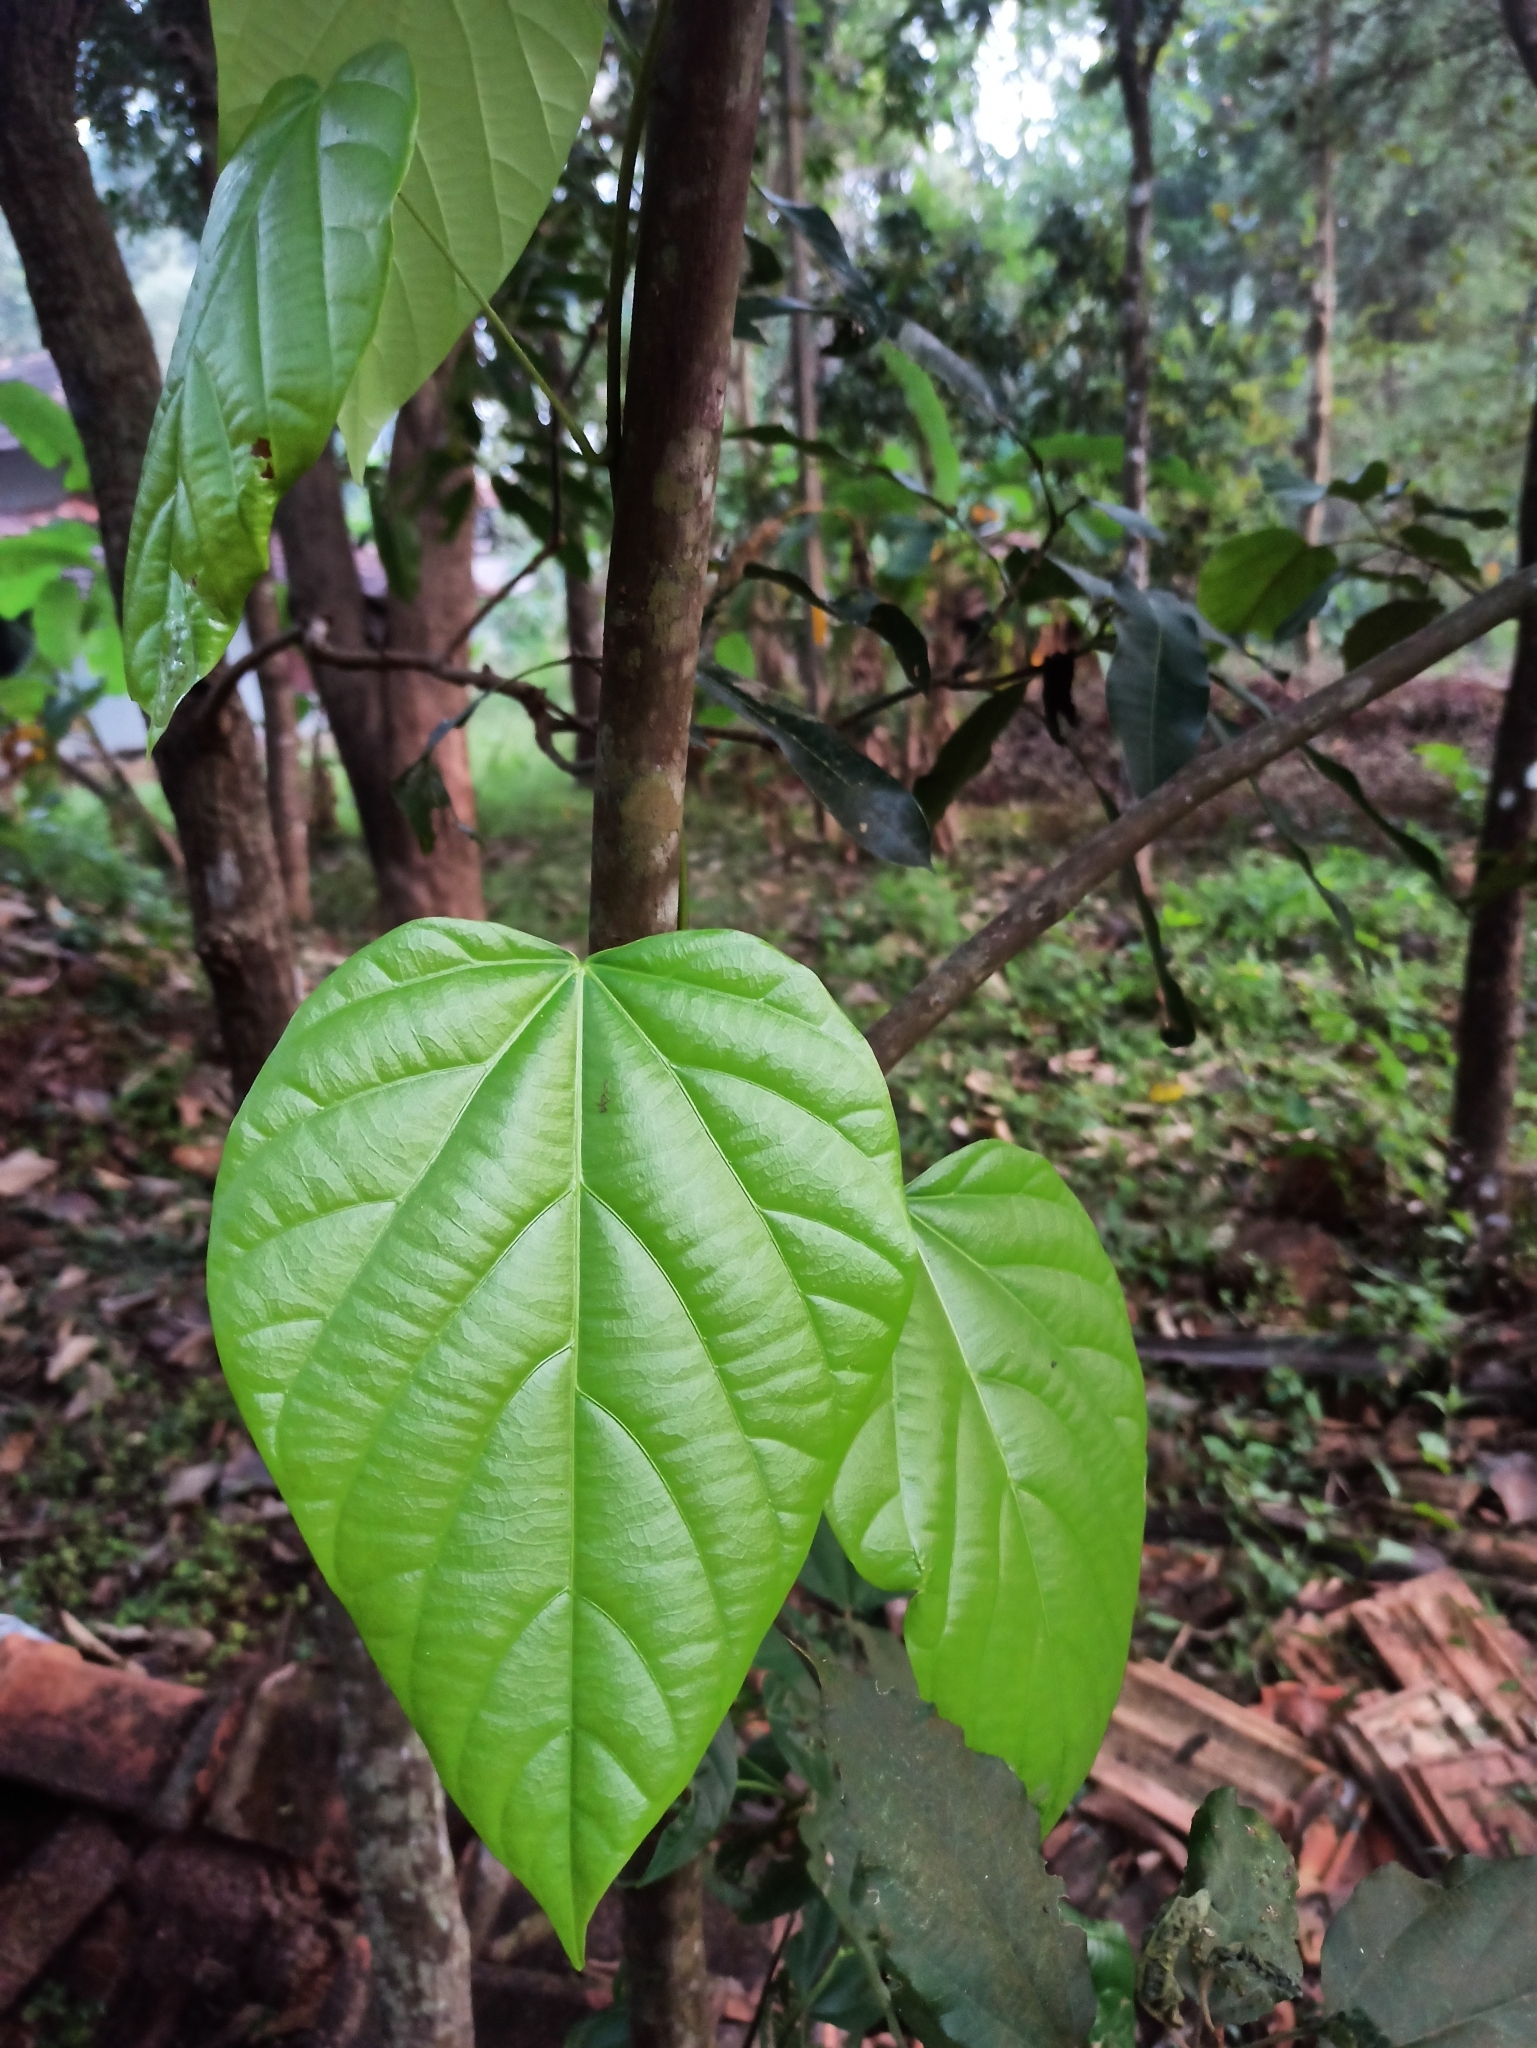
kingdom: Plantae
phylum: Tracheophyta
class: Magnoliopsida
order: Ranunculales
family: Menispermaceae
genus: Anamirta
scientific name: Anamirta cocculus
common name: Levantnut
